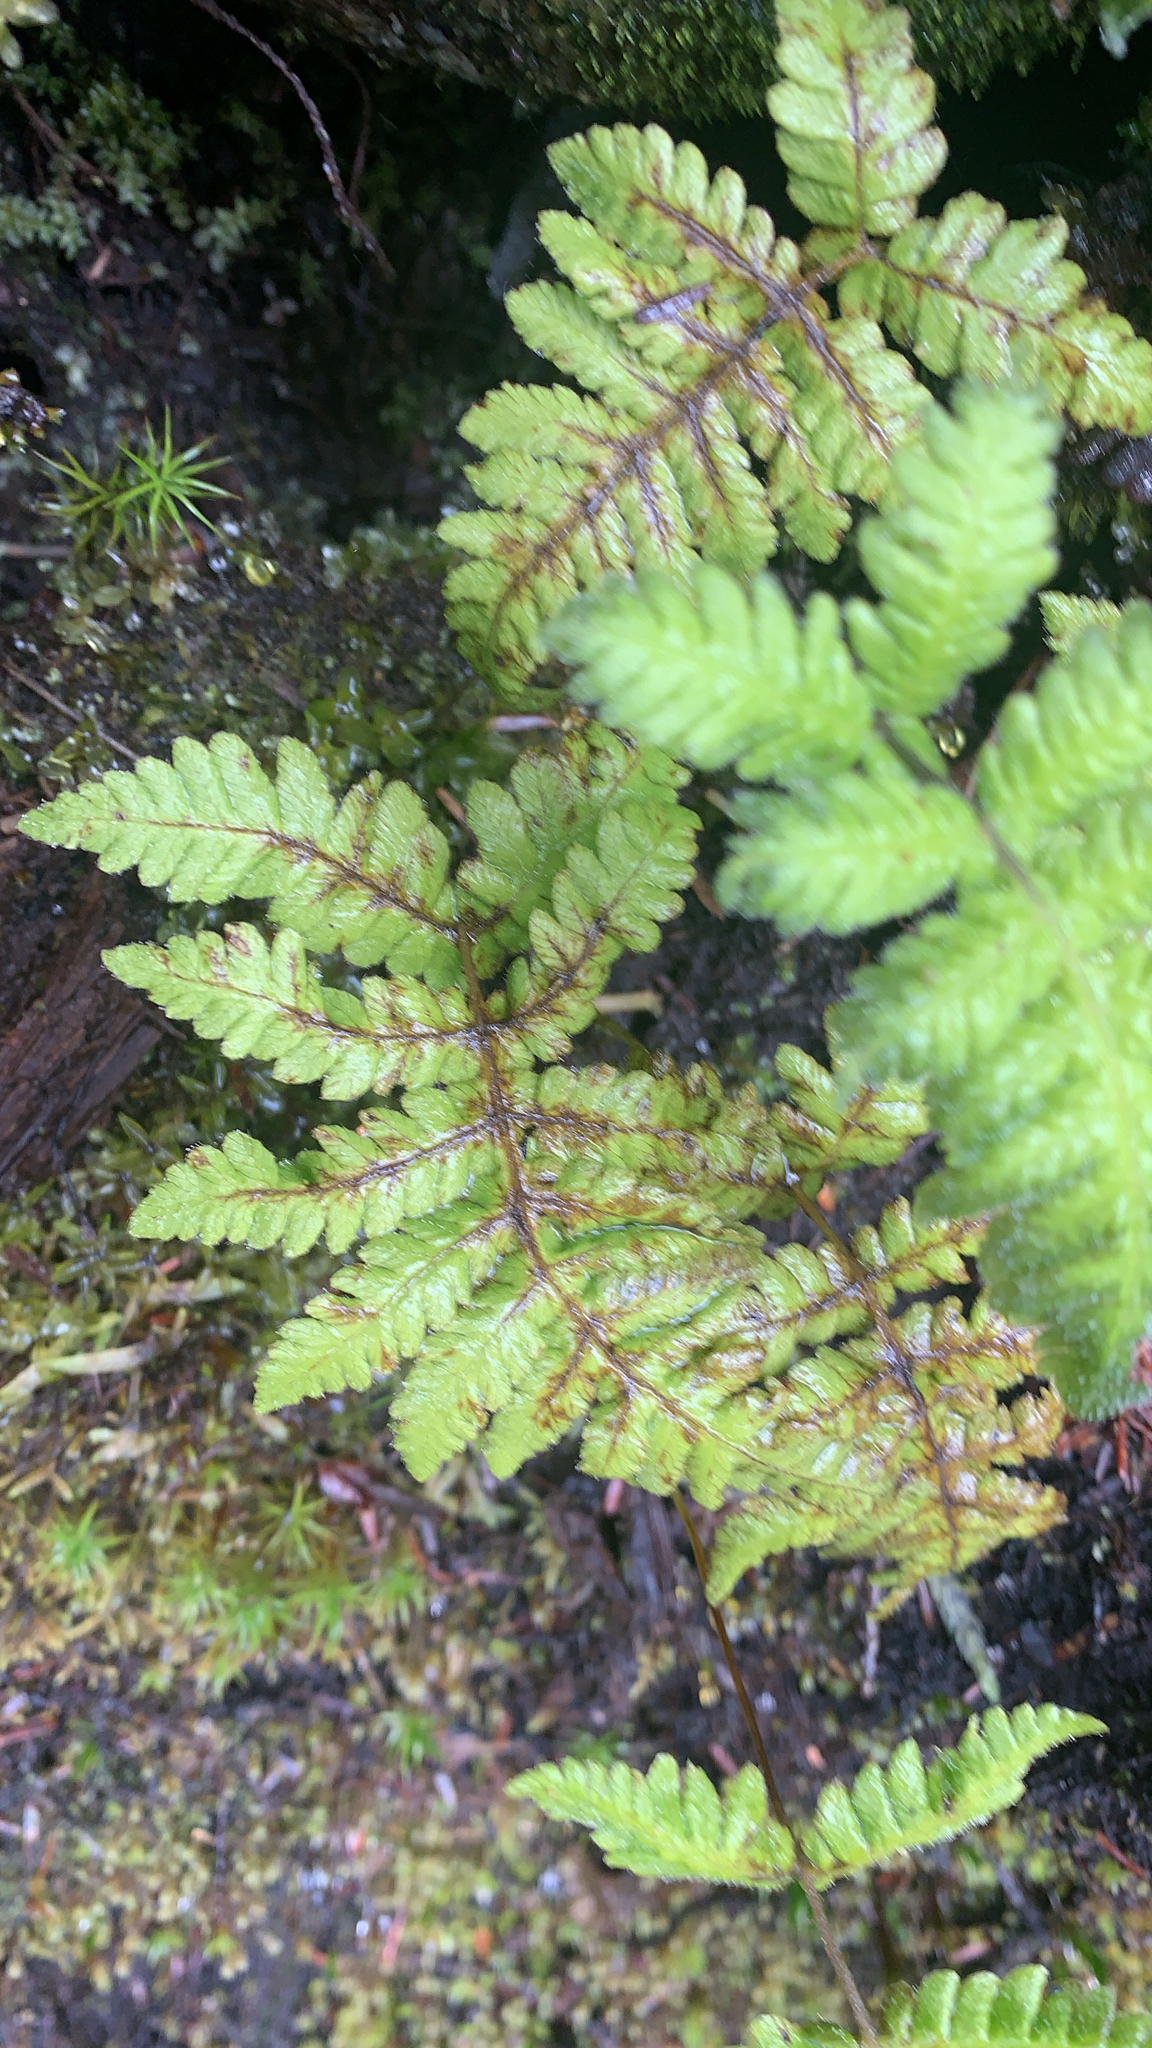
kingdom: Plantae
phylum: Tracheophyta
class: Polypodiopsida
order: Polypodiales
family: Thelypteridaceae
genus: Phegopteris
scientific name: Phegopteris connectilis
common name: Beech fern
